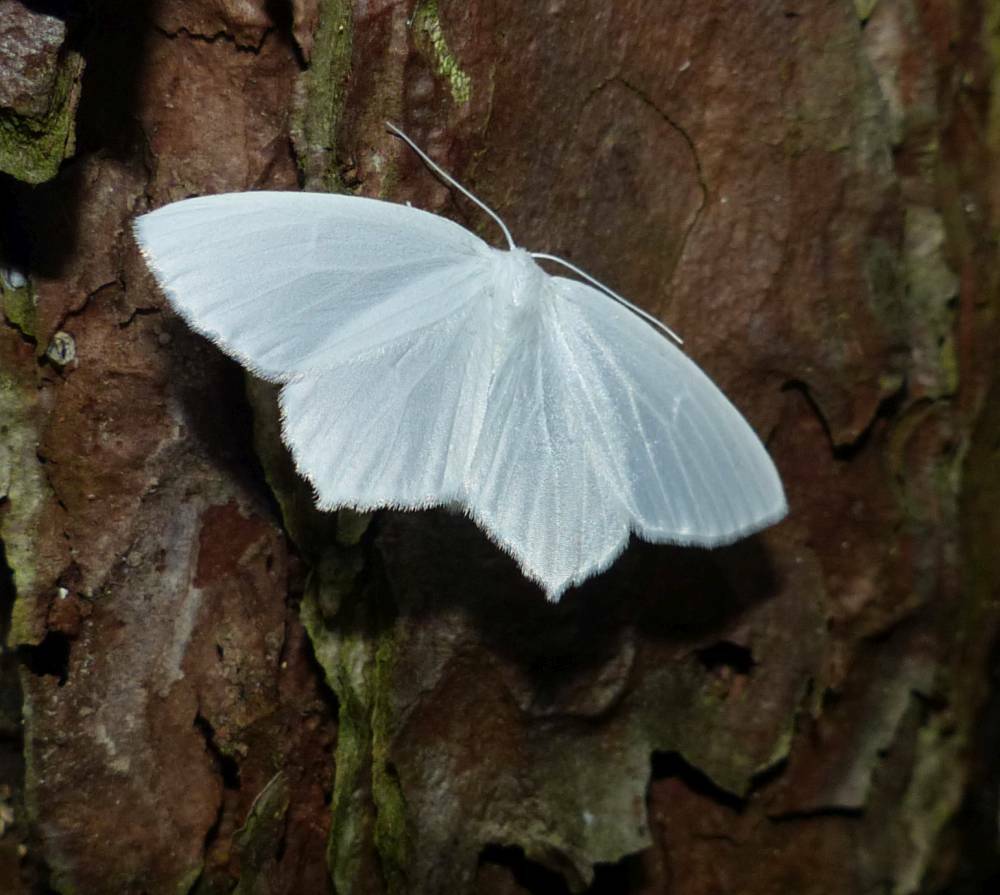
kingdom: Animalia
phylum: Arthropoda
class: Insecta
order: Lepidoptera
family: Geometridae
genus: Eugonobapta
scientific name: Eugonobapta nivosaria
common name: Snowy geometer
